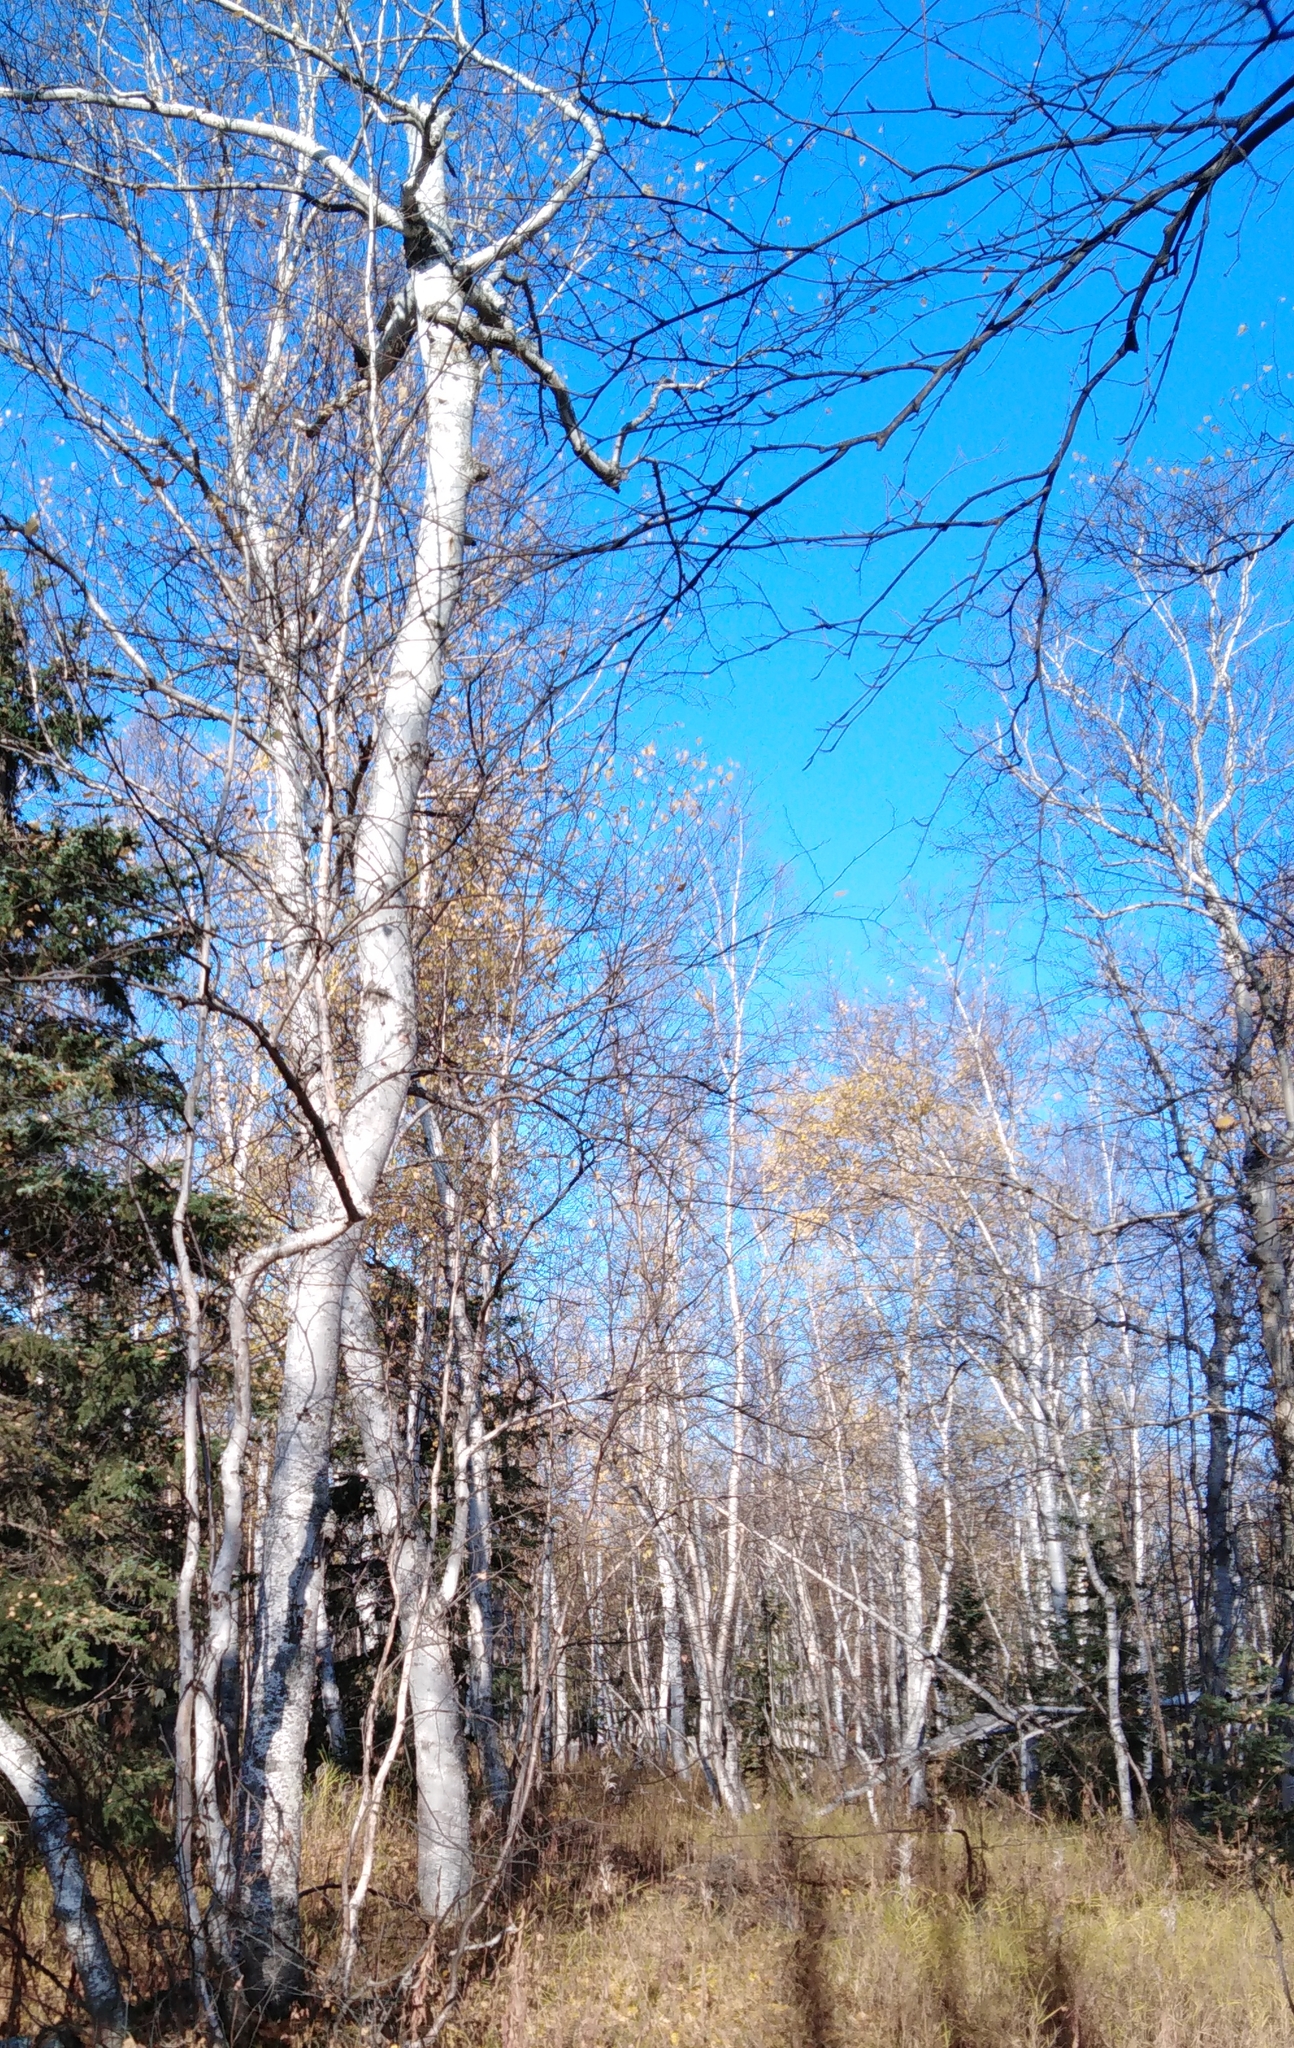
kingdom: Plantae
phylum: Tracheophyta
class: Magnoliopsida
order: Fagales
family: Betulaceae
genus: Betula
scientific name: Betula ermanii
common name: Erman's birch
